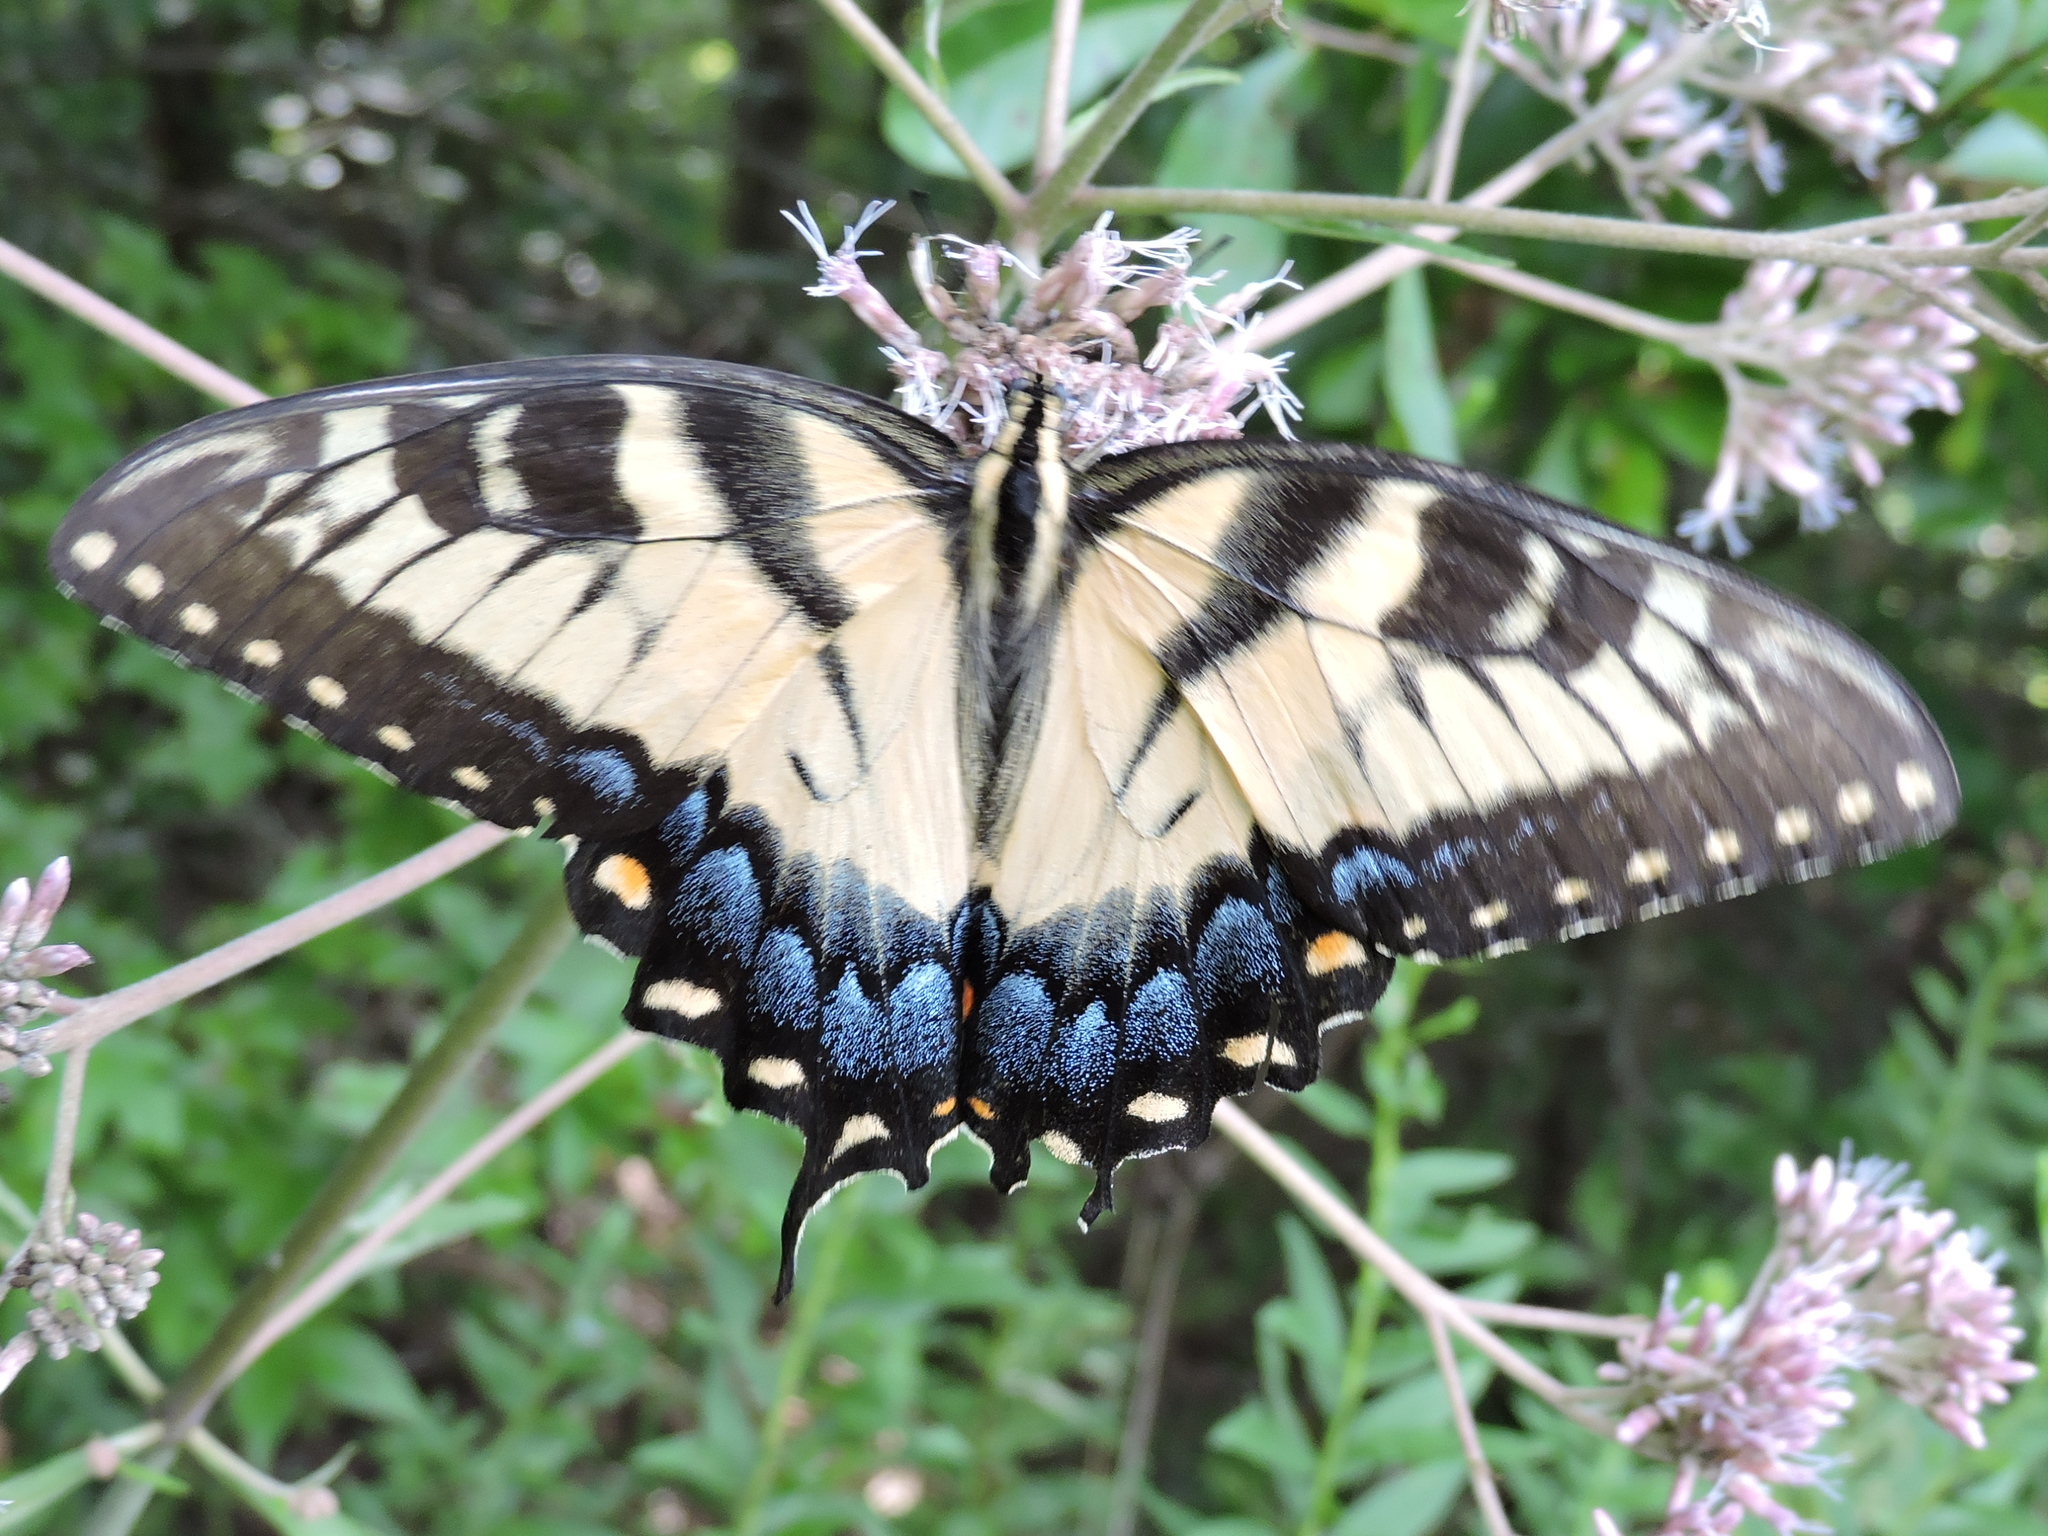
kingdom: Animalia
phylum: Arthropoda
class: Insecta
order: Lepidoptera
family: Papilionidae
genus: Papilio
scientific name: Papilio glaucus
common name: Tiger swallowtail
